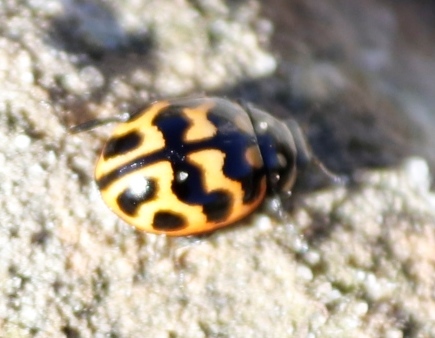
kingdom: Animalia
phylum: Arthropoda
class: Insecta
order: Coleoptera
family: Coccinellidae
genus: Lioadalia
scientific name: Lioadalia flavomaculata
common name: Ladybird beetle
